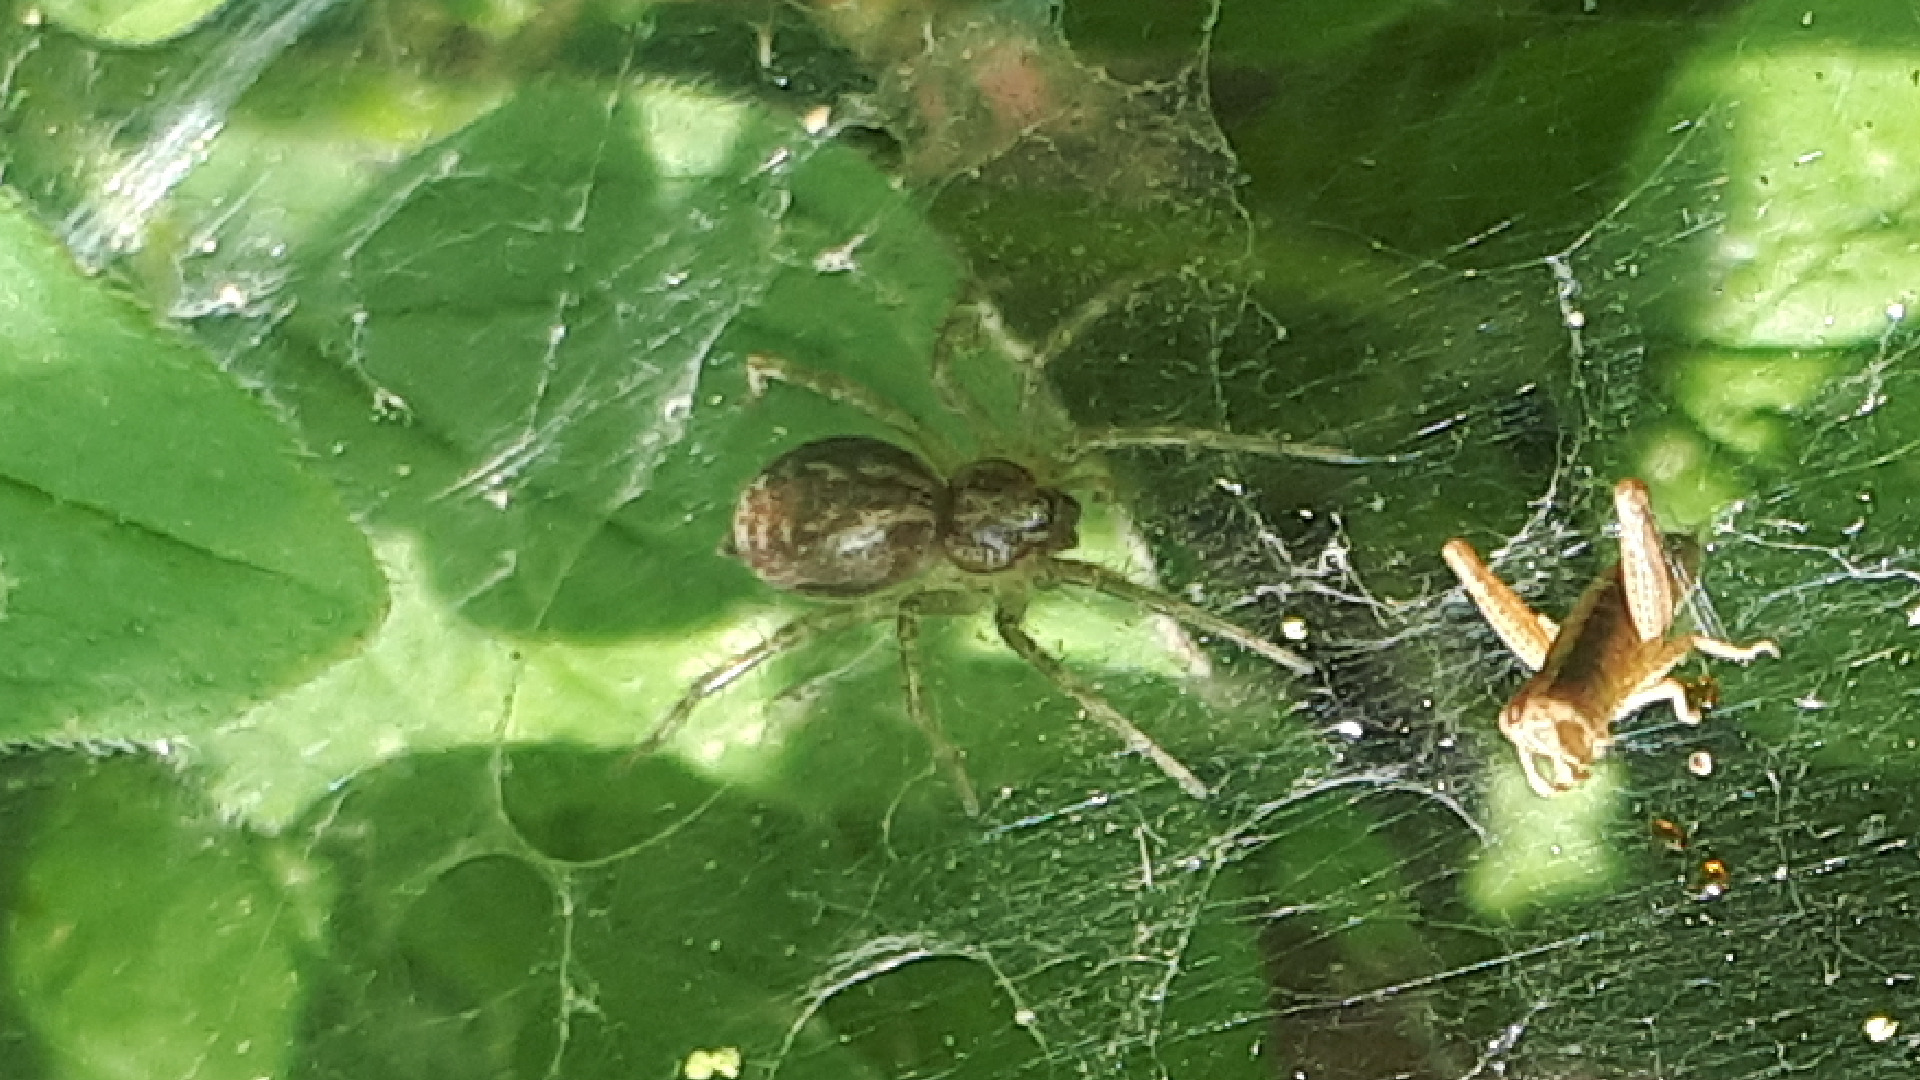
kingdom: Animalia
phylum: Arthropoda
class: Arachnida
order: Araneae
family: Agelenidae
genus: Allagelena
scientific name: Allagelena gracilens
